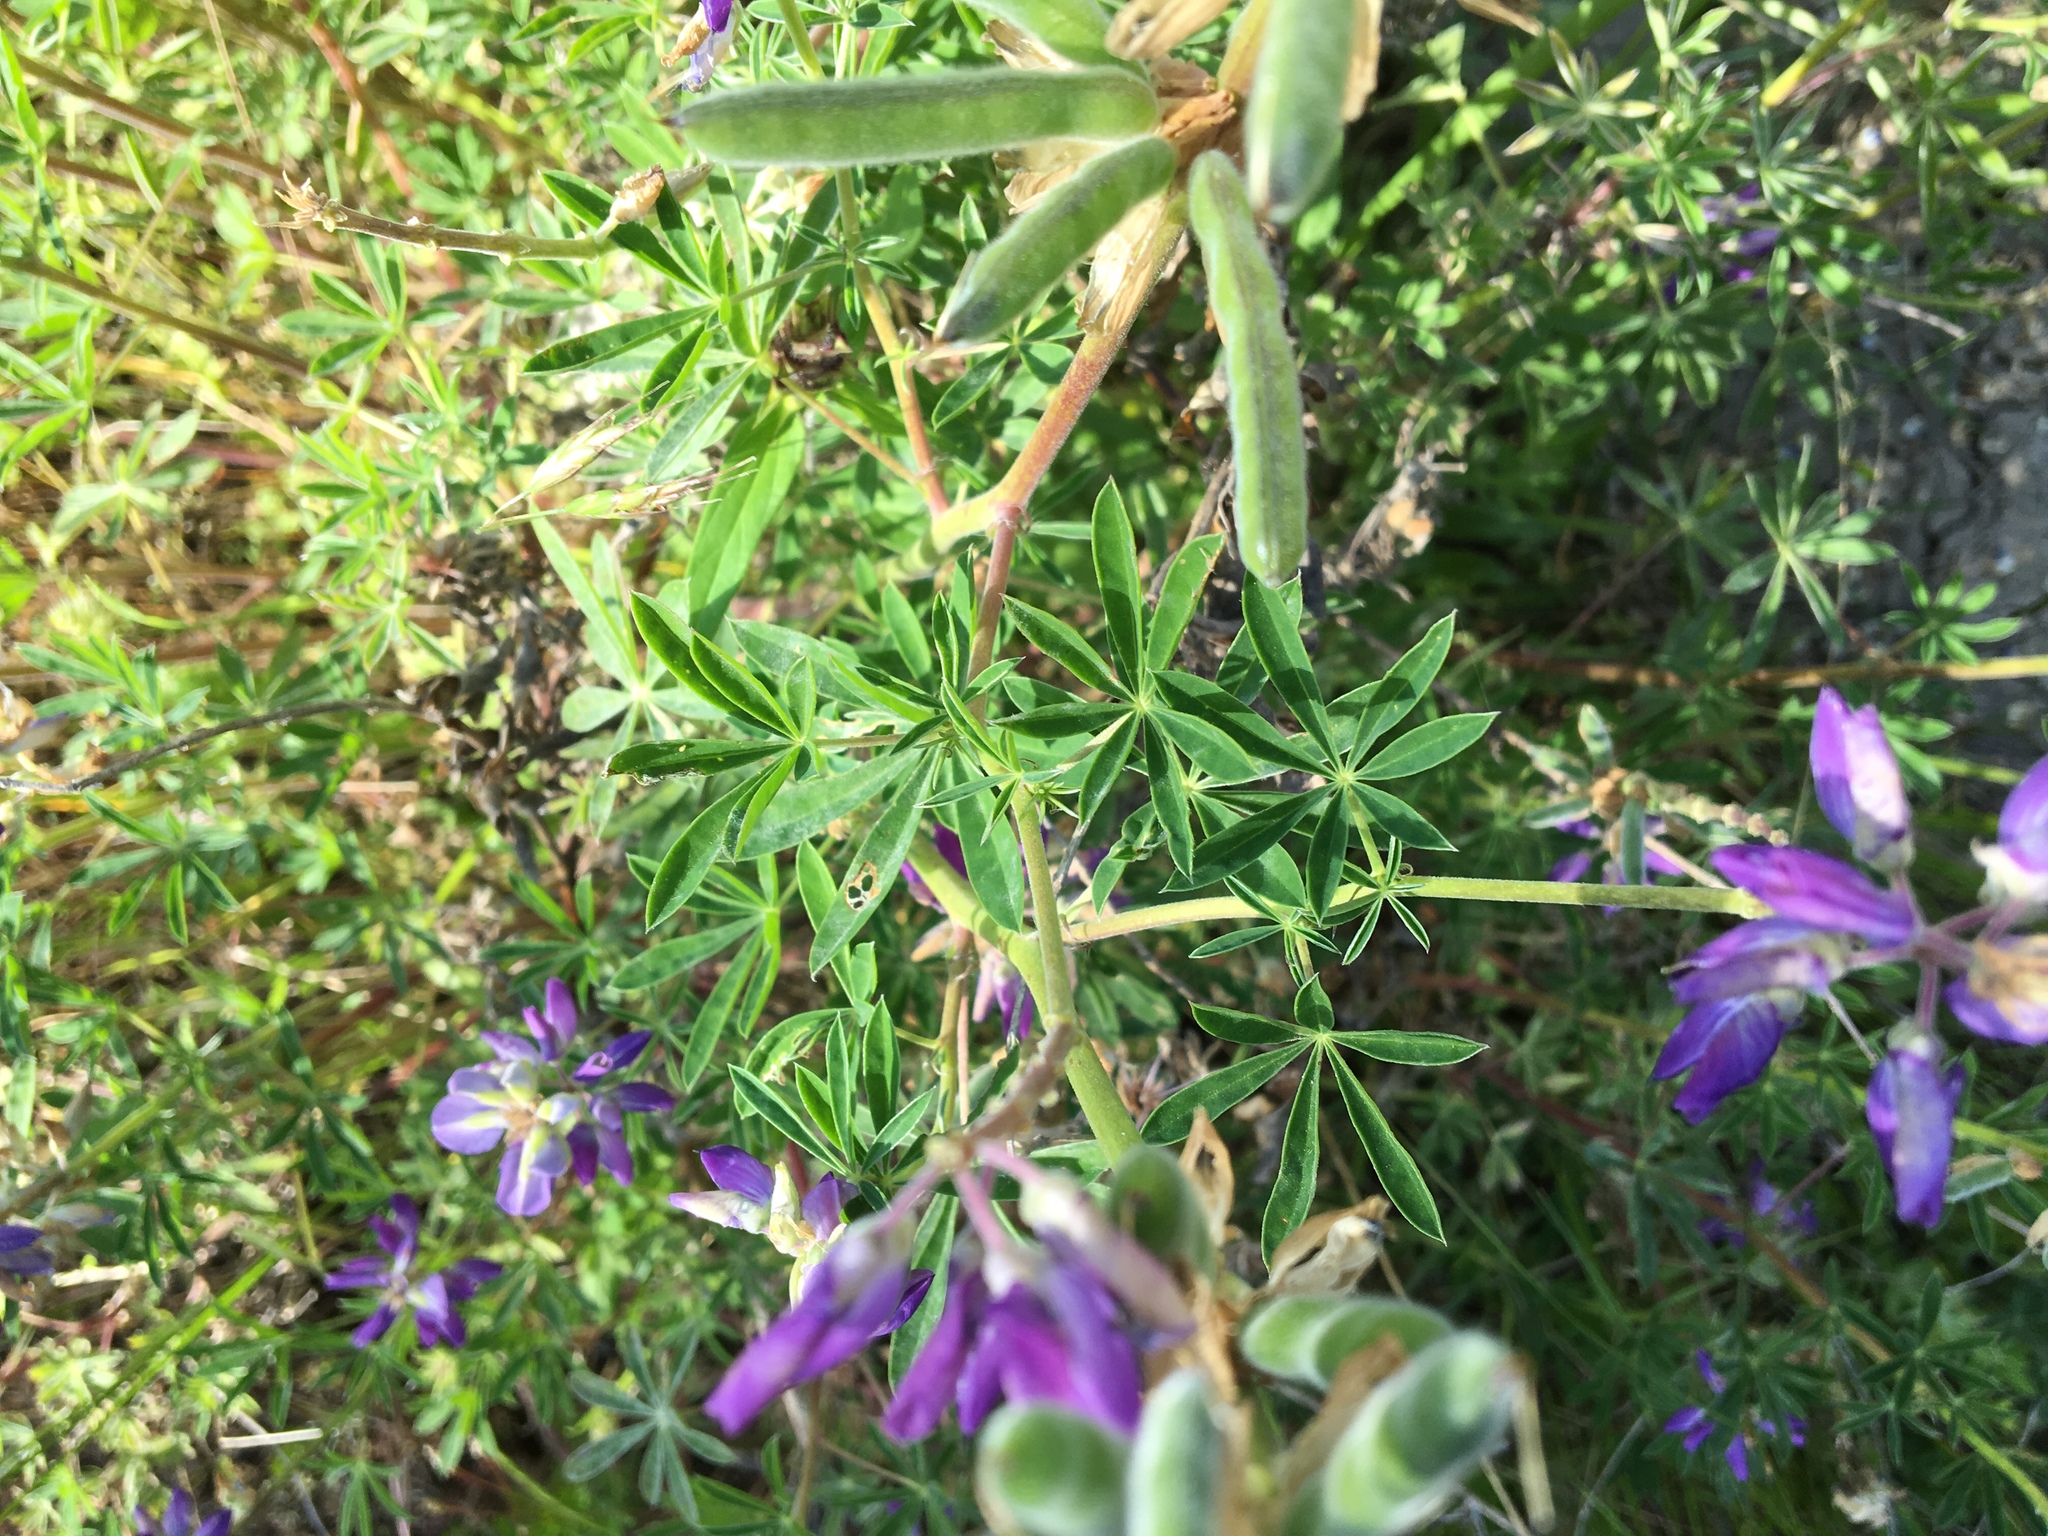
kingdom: Plantae
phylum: Tracheophyta
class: Magnoliopsida
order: Fabales
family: Fabaceae
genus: Lupinus
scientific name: Lupinus rivularis
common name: Riverbank lupine
